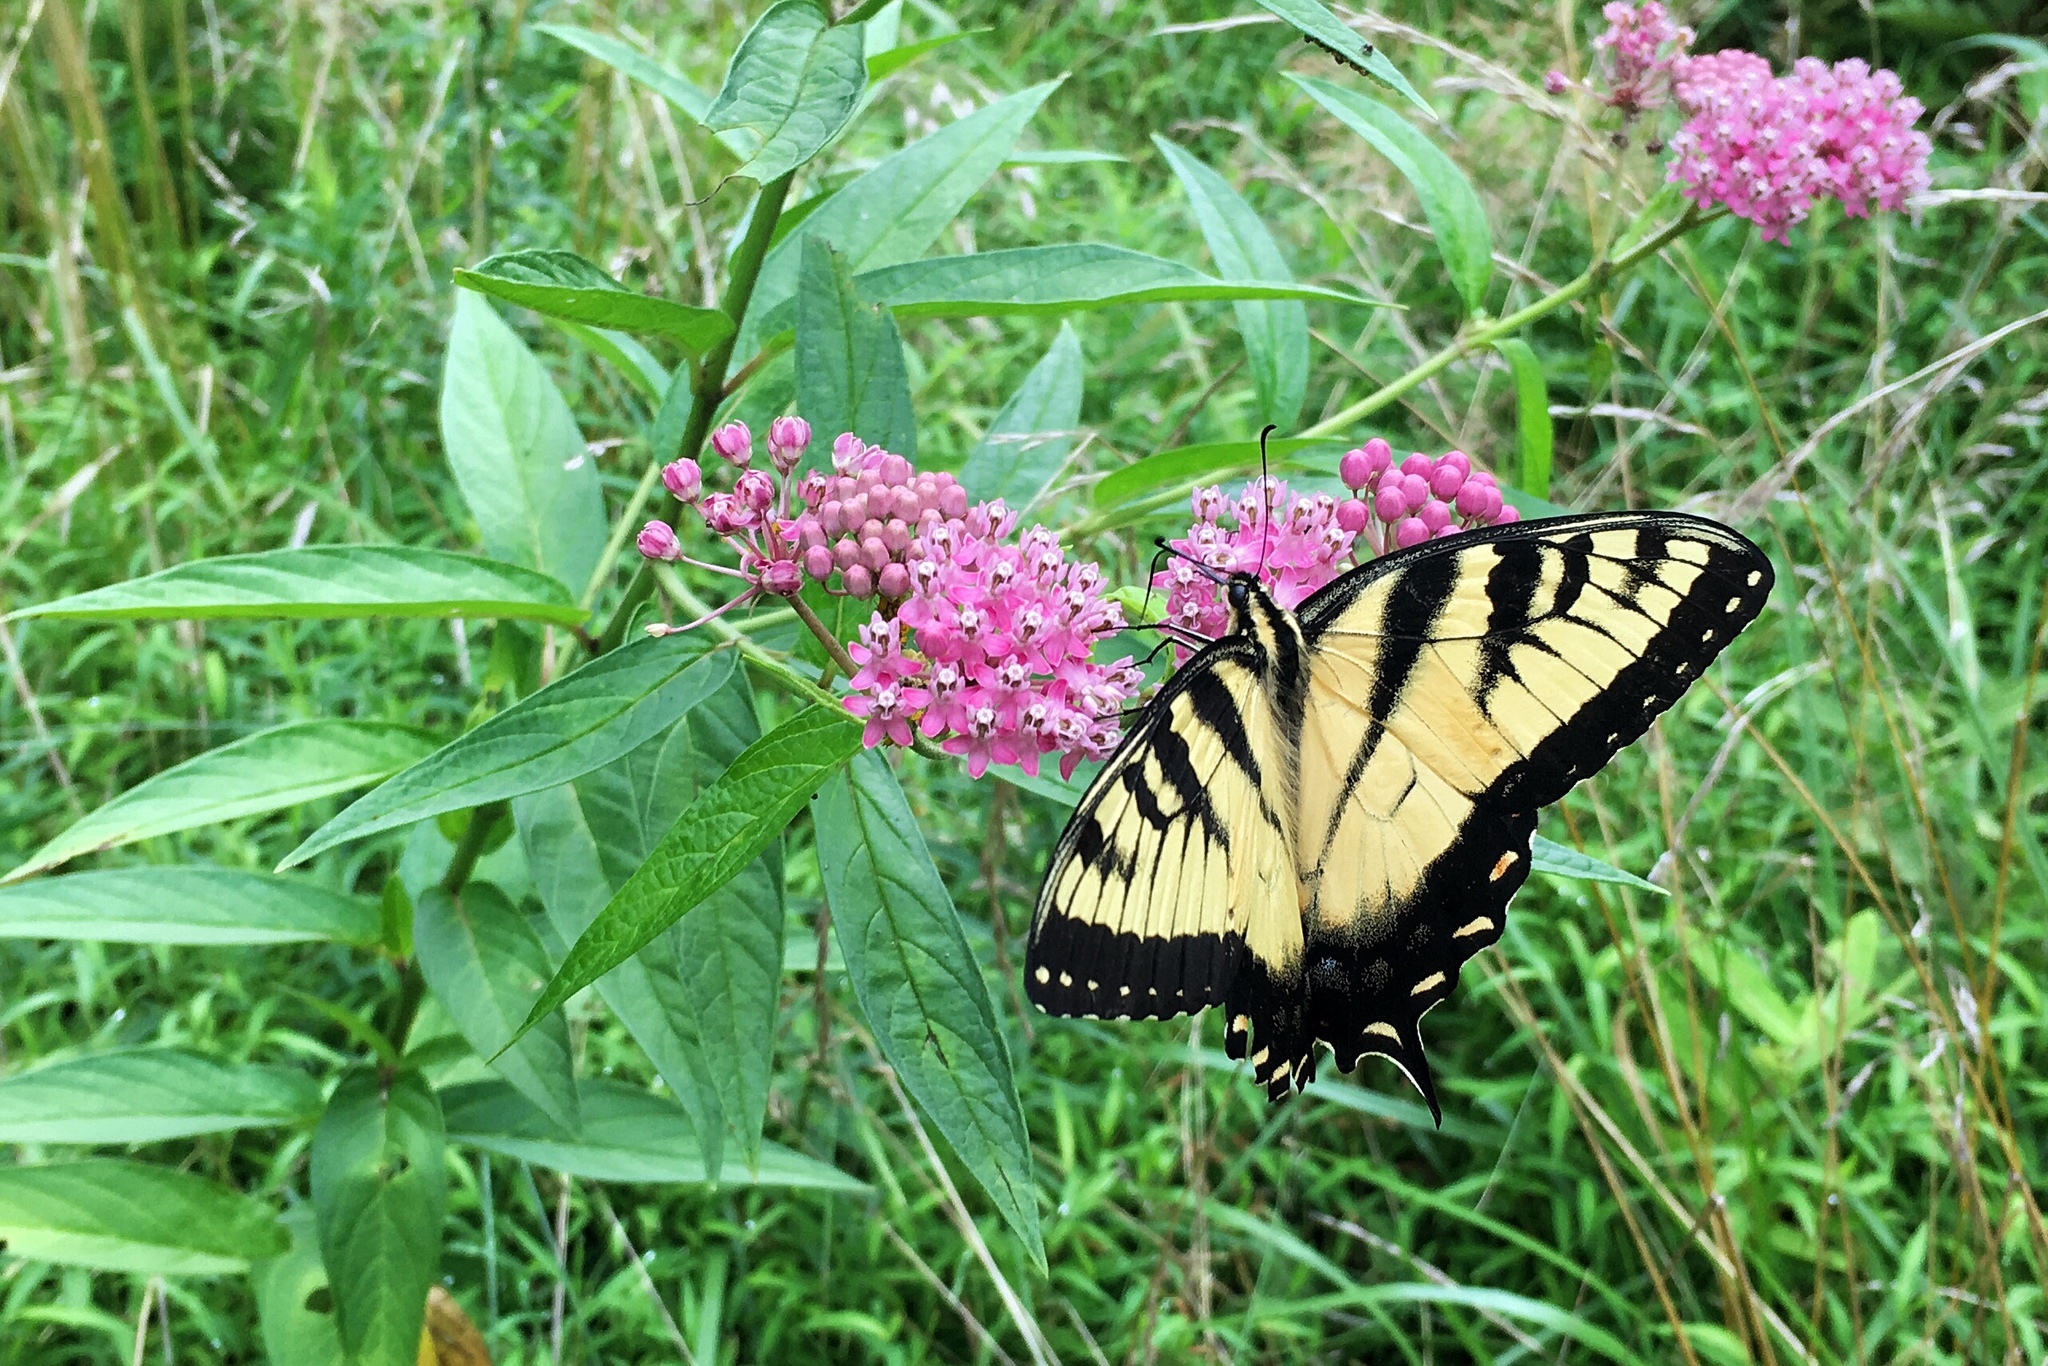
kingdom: Animalia
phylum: Arthropoda
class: Insecta
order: Lepidoptera
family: Papilionidae
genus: Papilio
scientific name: Papilio glaucus
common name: Tiger swallowtail
